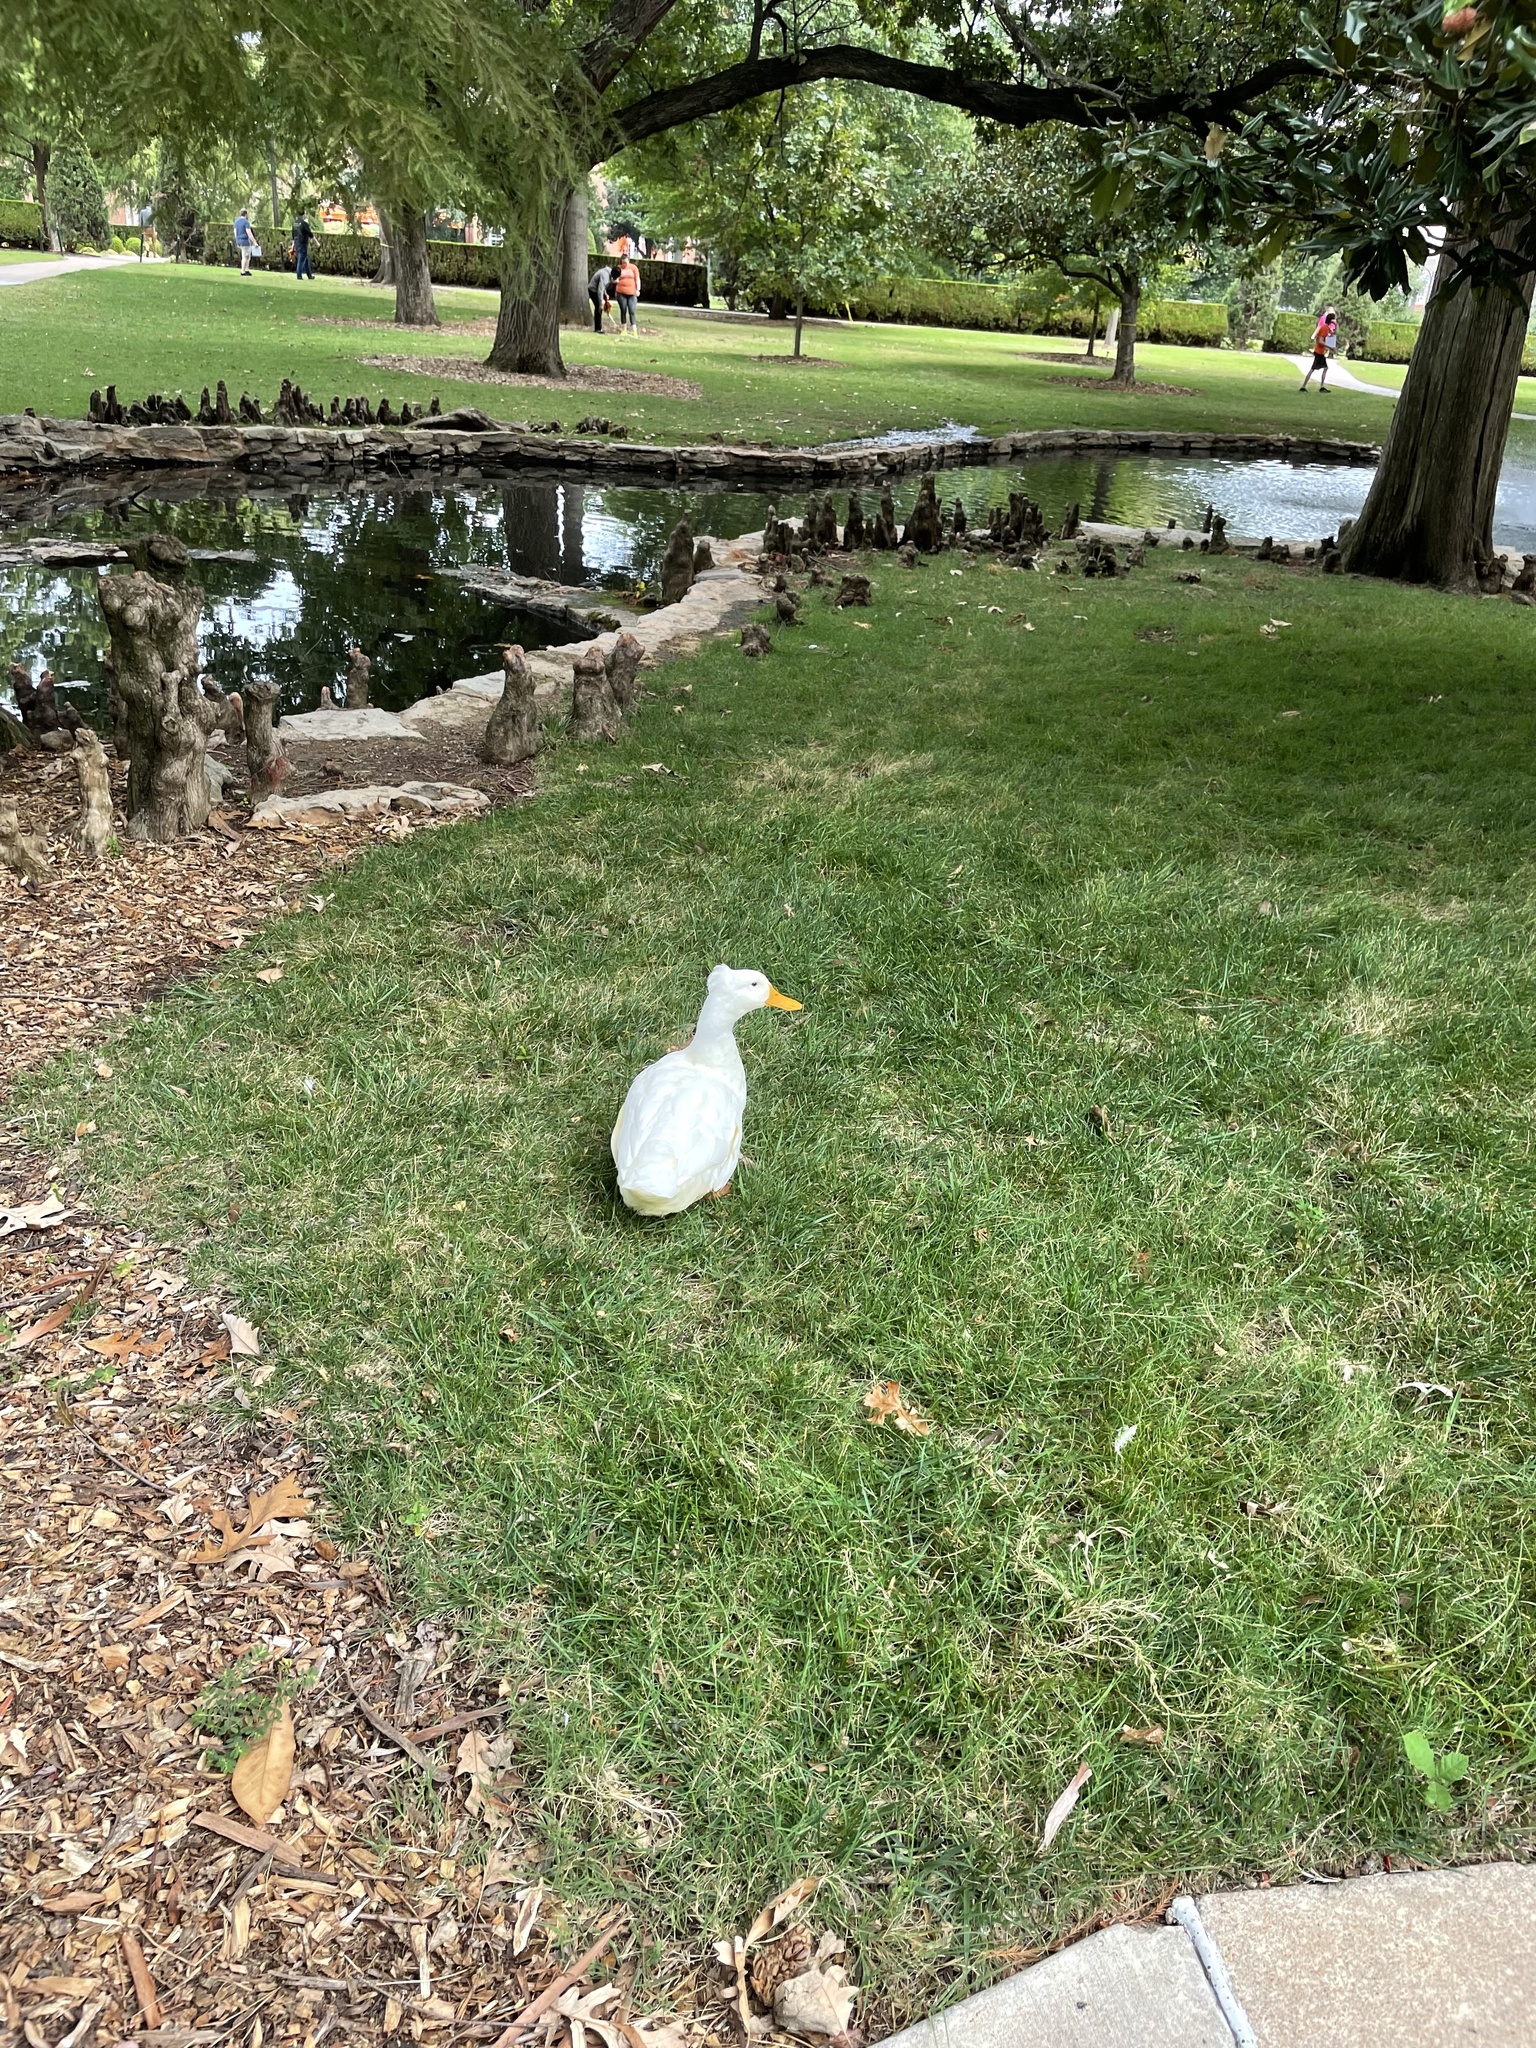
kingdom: Animalia
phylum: Chordata
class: Aves
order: Anseriformes
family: Anatidae
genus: Anas
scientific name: Anas platyrhynchos
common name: Mallard
